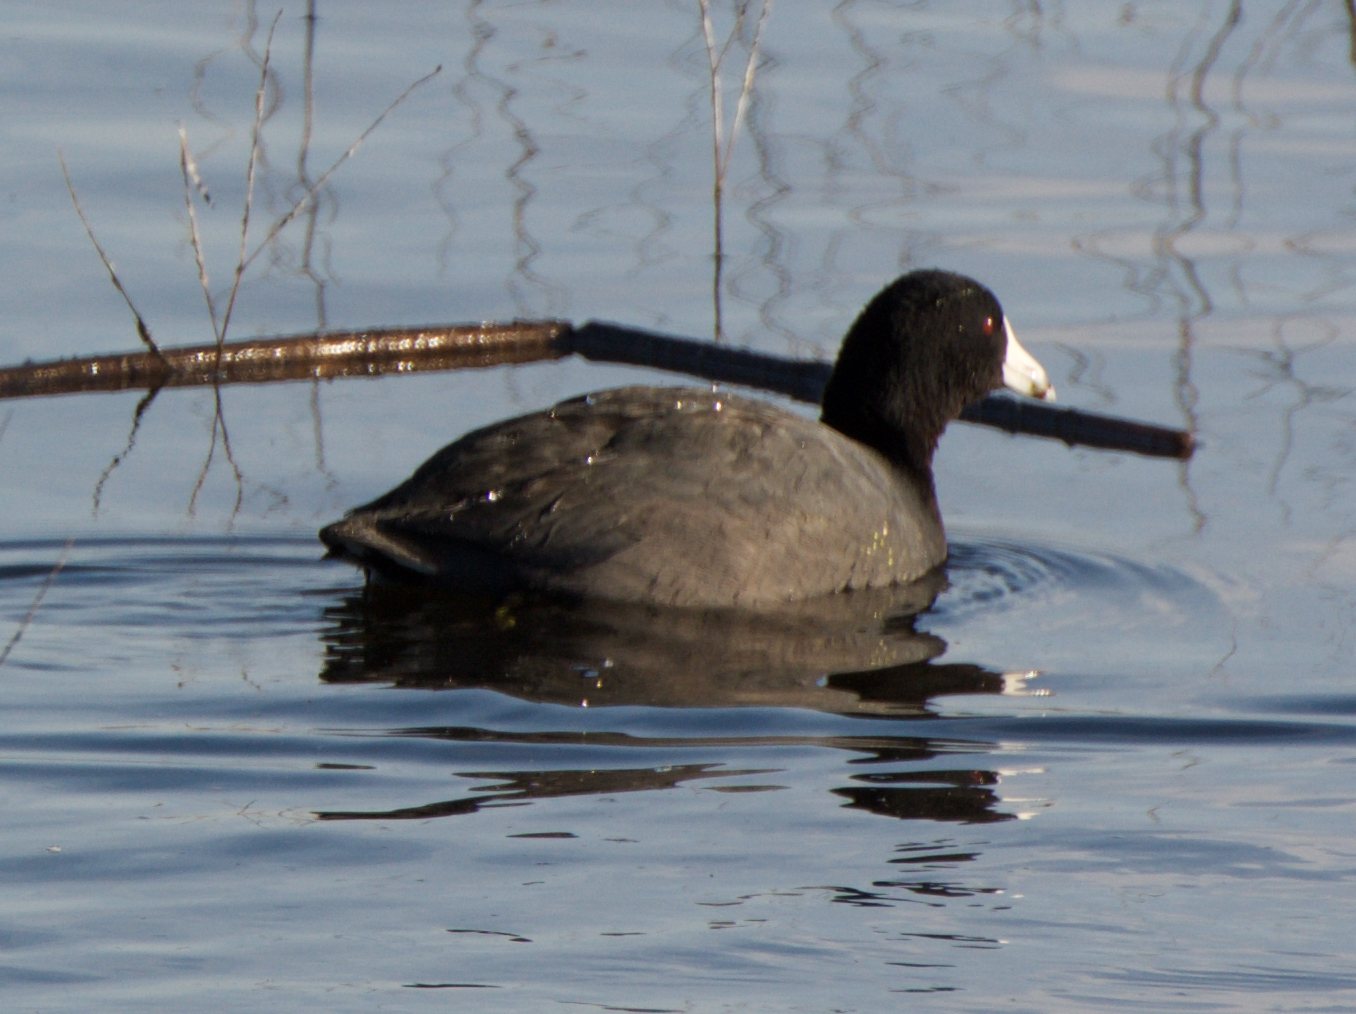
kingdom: Animalia
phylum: Chordata
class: Aves
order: Gruiformes
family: Rallidae
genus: Fulica
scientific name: Fulica americana
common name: American coot
